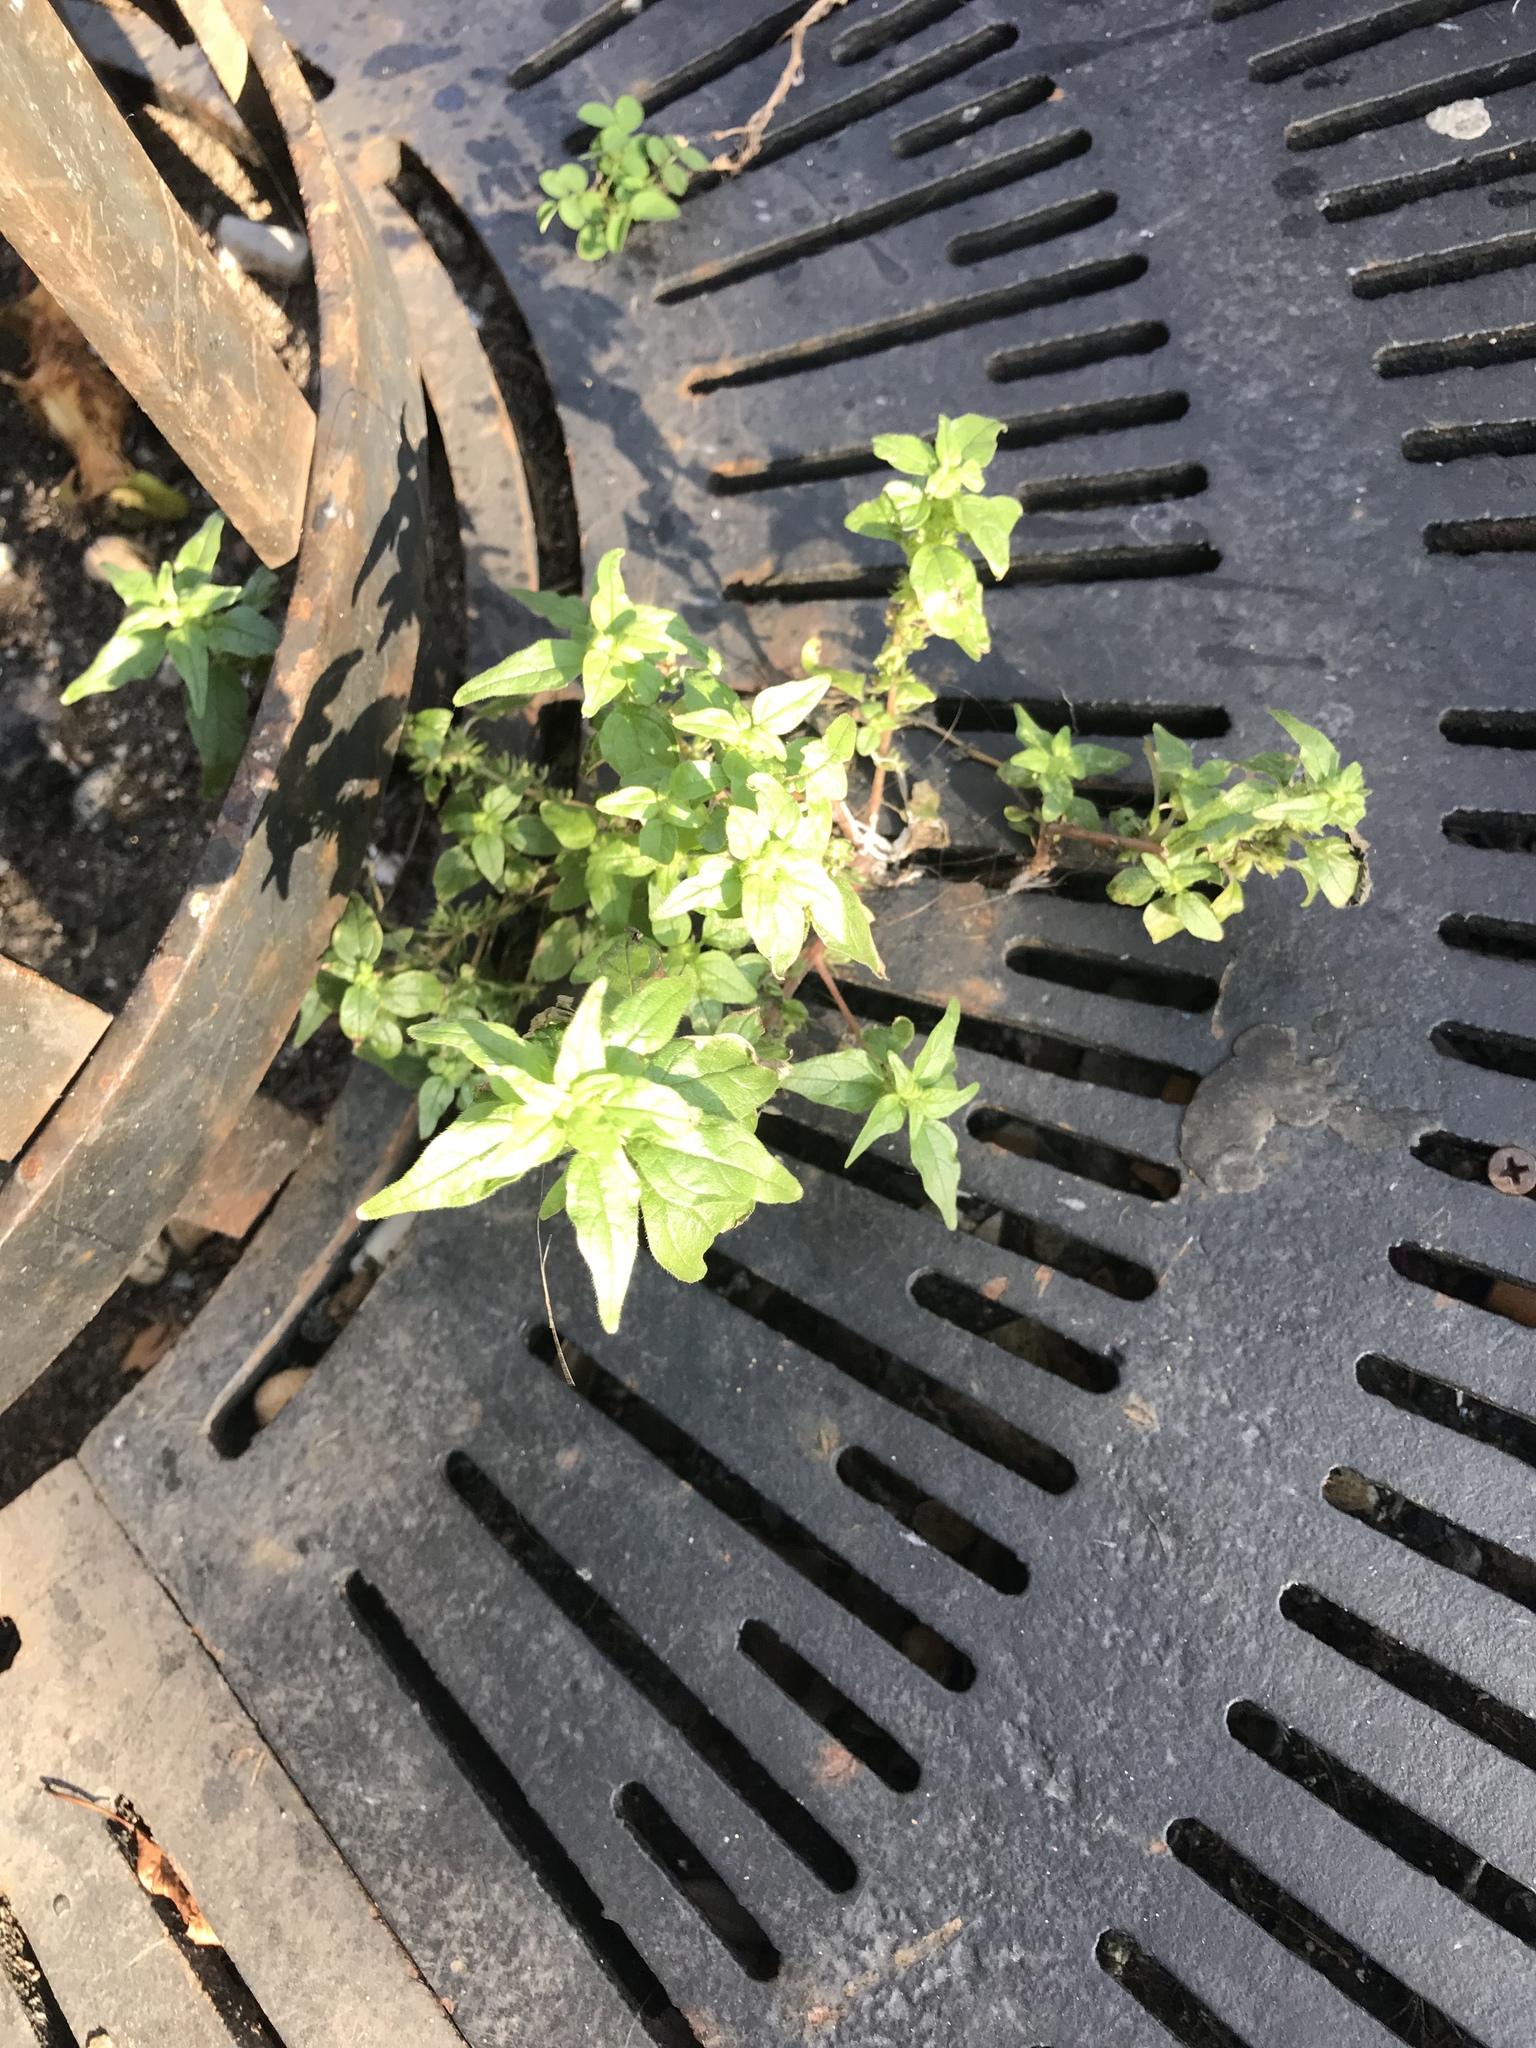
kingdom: Plantae
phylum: Tracheophyta
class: Magnoliopsida
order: Rosales
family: Urticaceae
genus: Parietaria
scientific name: Parietaria pensylvanica
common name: Pennsylvania pellitory
